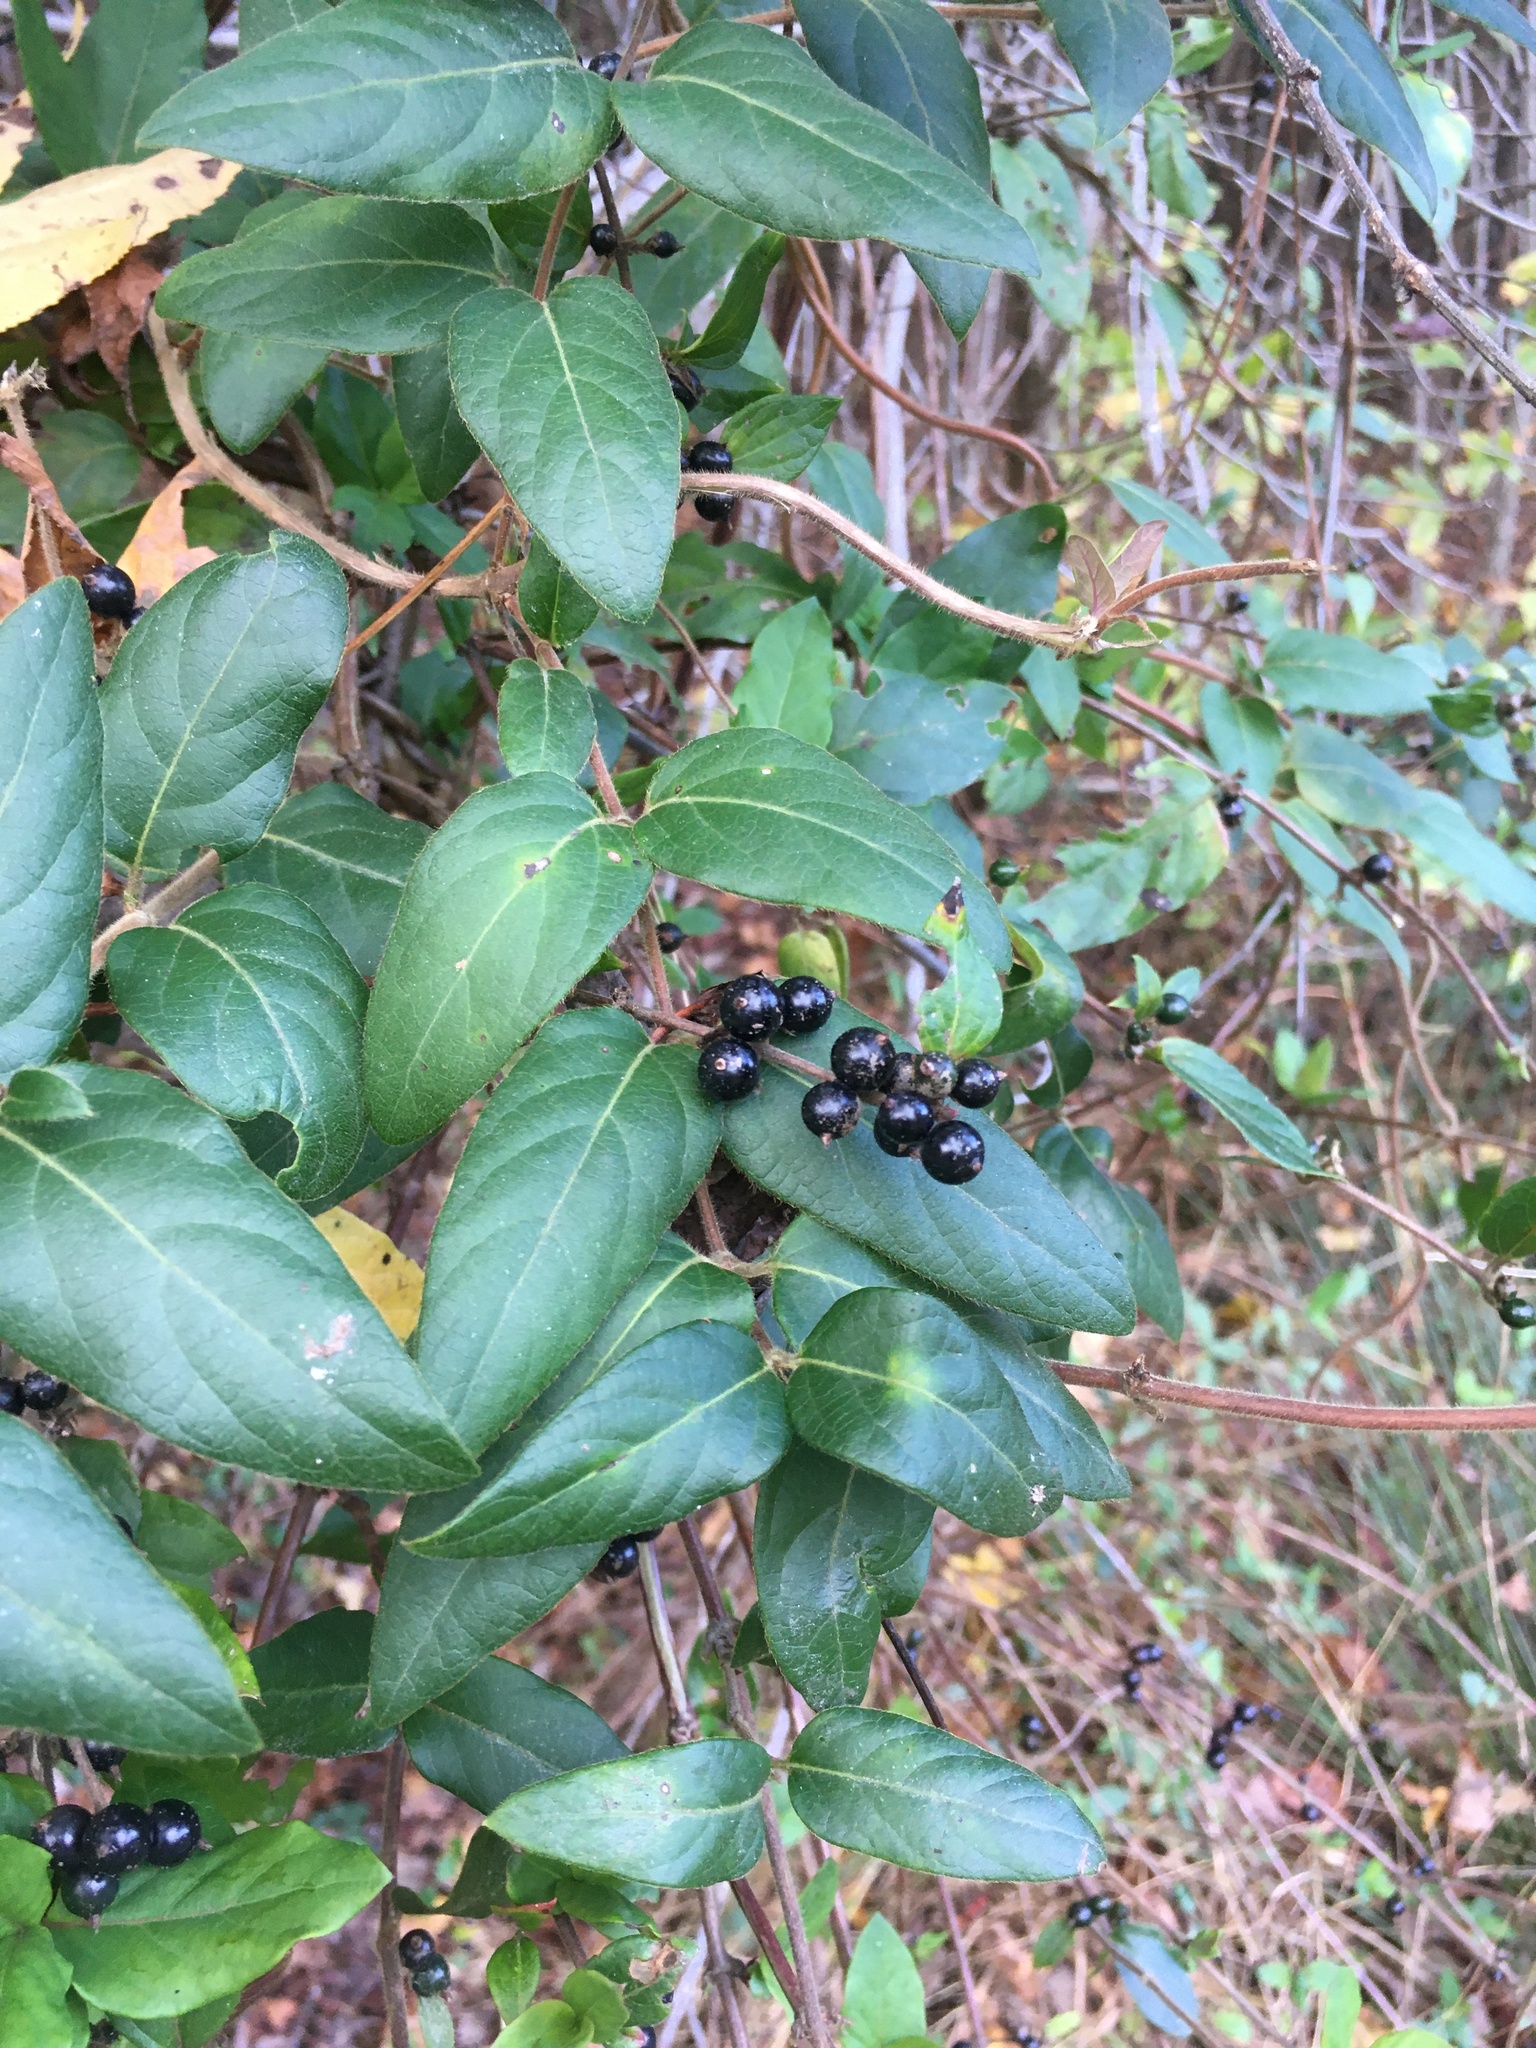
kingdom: Plantae
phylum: Tracheophyta
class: Magnoliopsida
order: Dipsacales
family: Caprifoliaceae
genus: Lonicera
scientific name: Lonicera japonica
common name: Japanese honeysuckle
